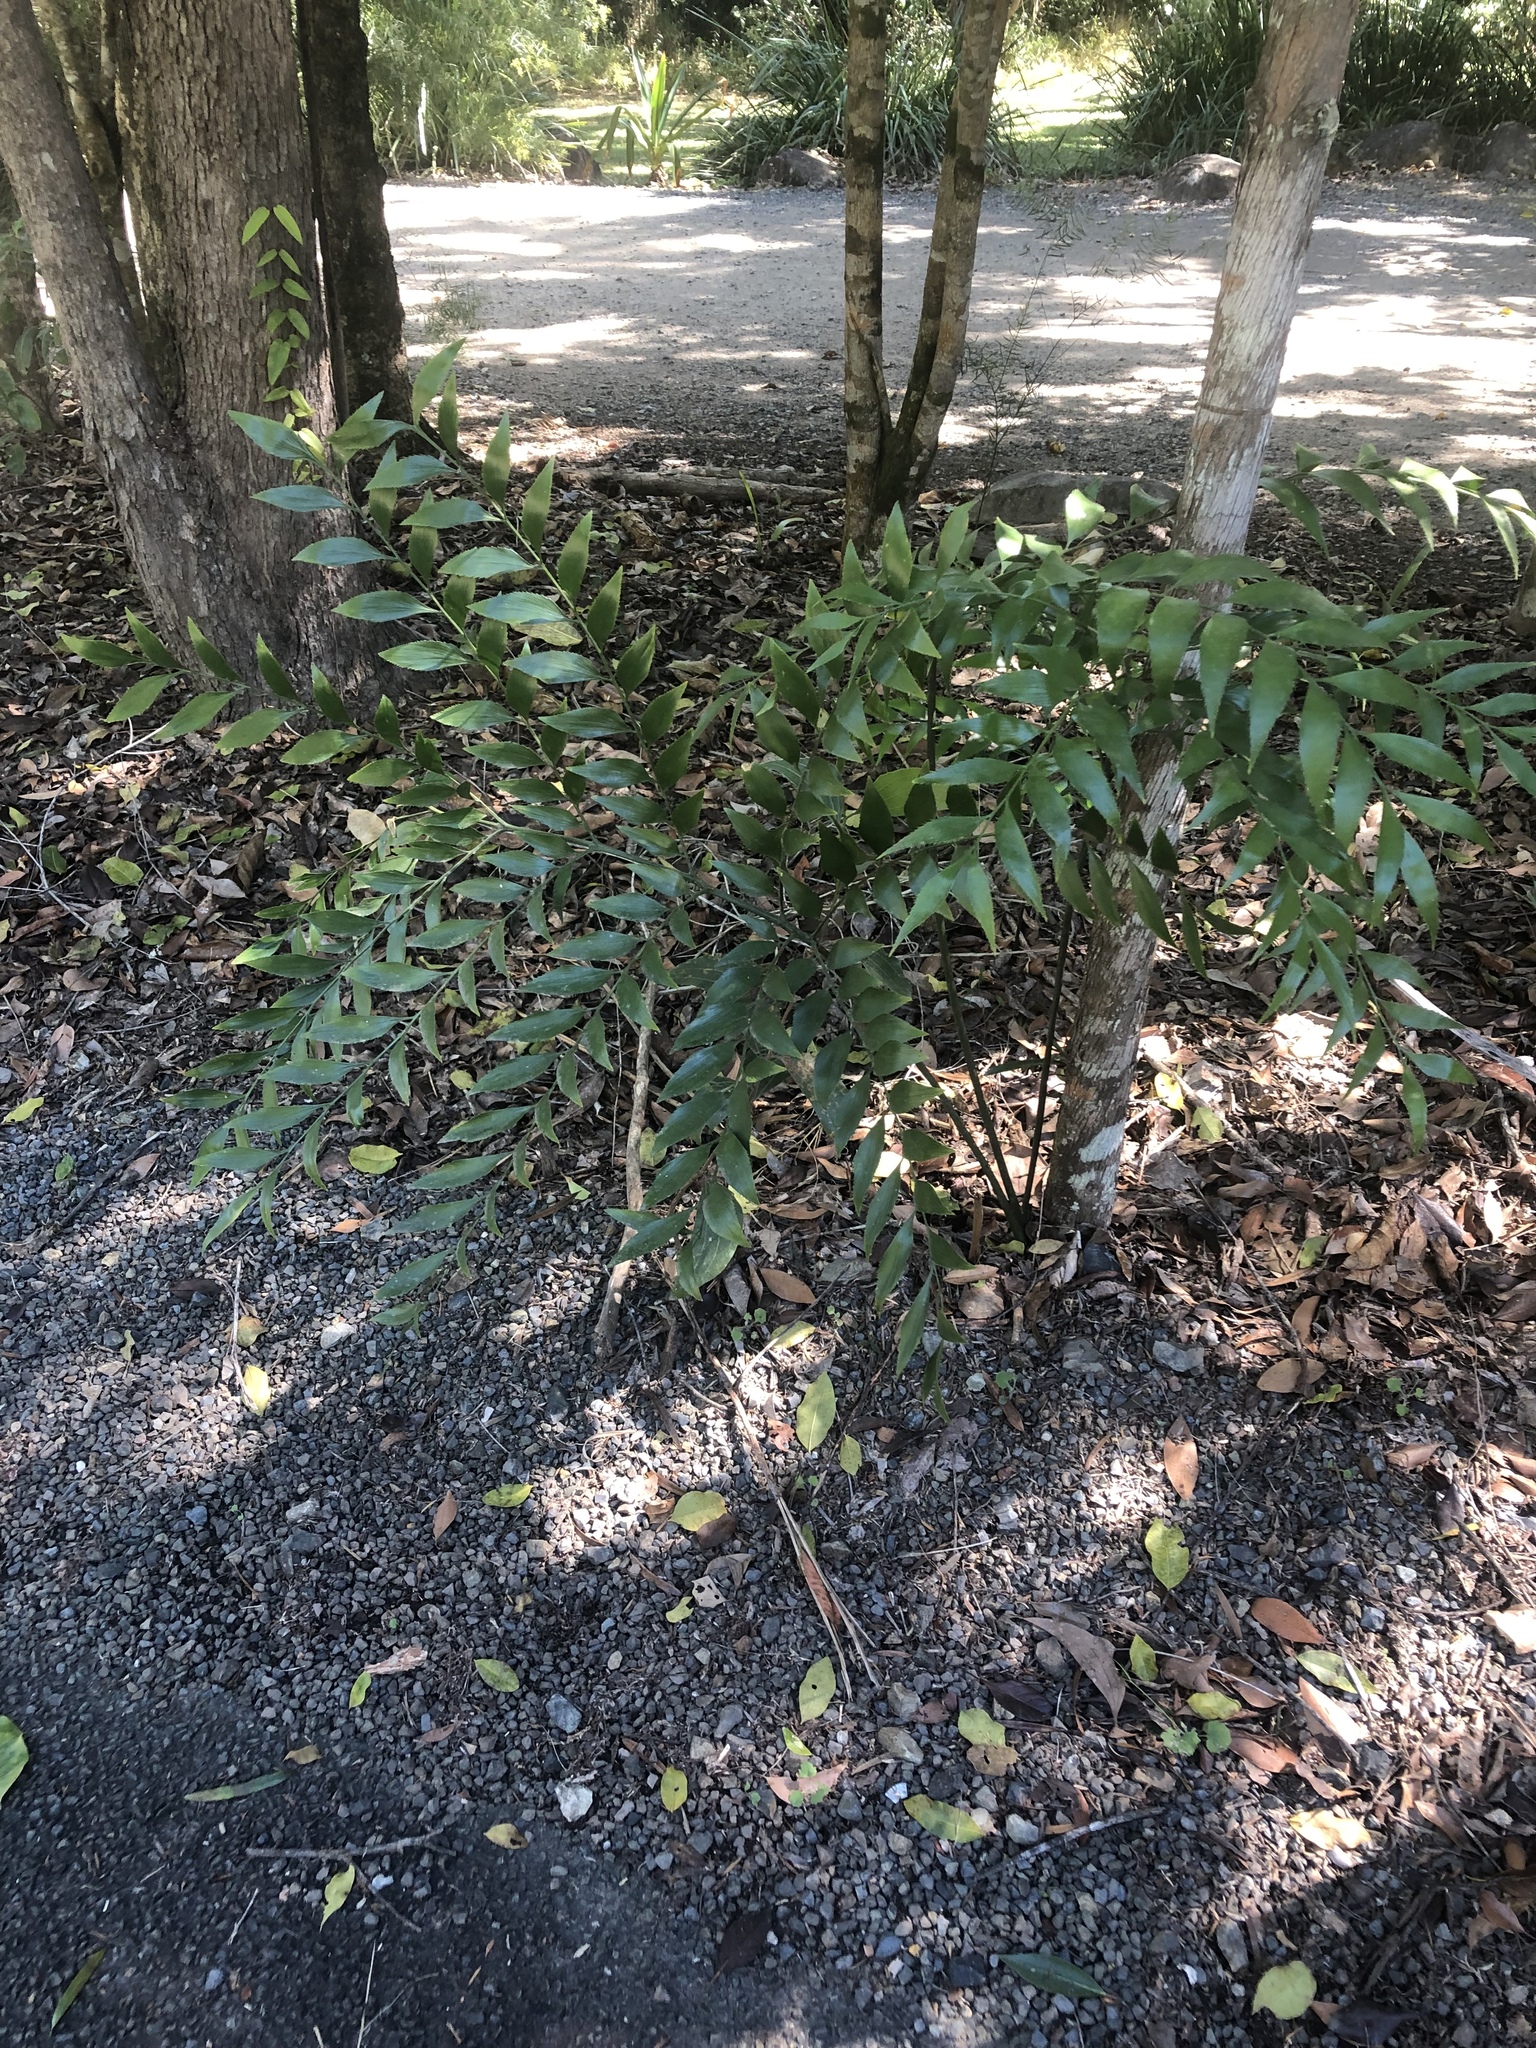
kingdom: Plantae
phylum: Tracheophyta
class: Cycadopsida
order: Cycadales
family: Zamiaceae
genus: Bowenia
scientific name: Bowenia serrulata
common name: Byfield fern
